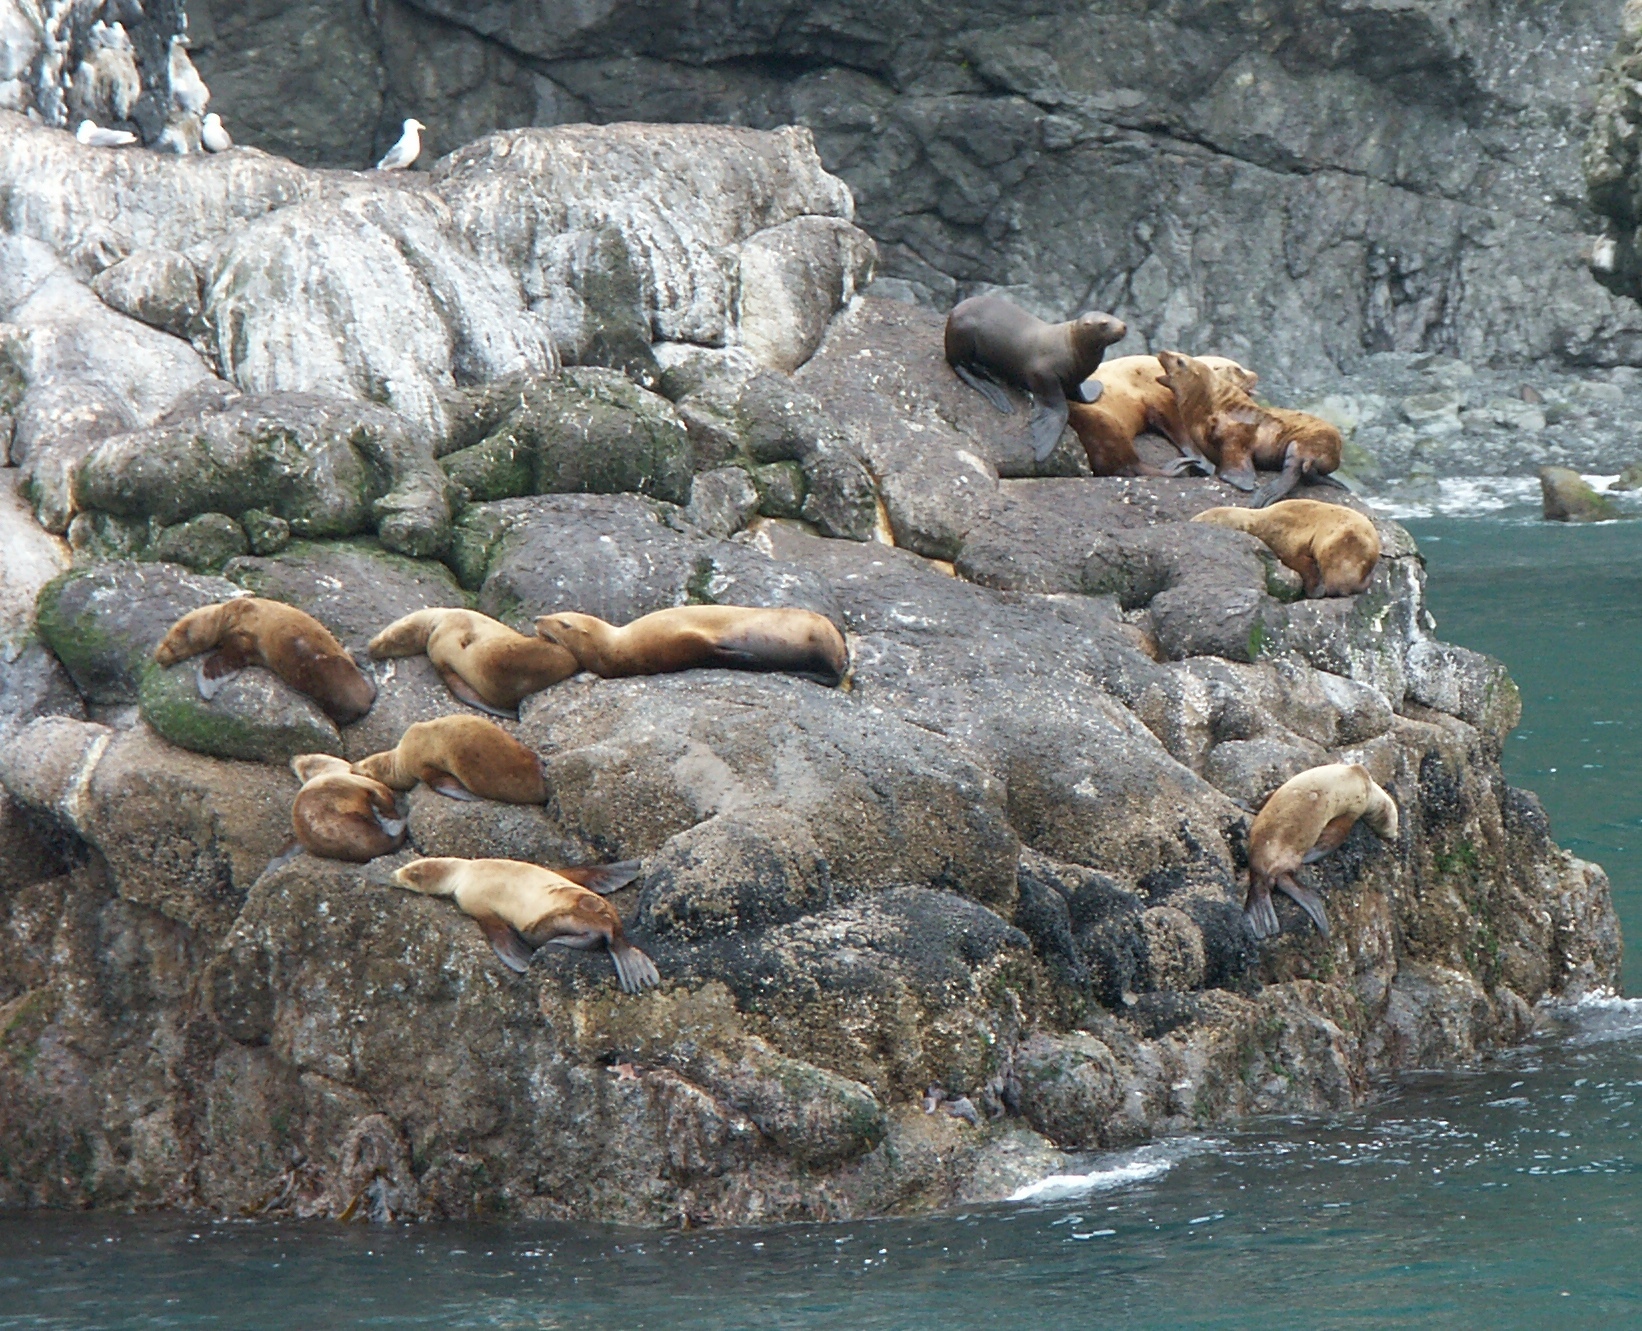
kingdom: Animalia
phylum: Chordata
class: Mammalia
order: Carnivora
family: Otariidae
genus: Eumetopias
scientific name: Eumetopias jubatus
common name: Steller sea lion
